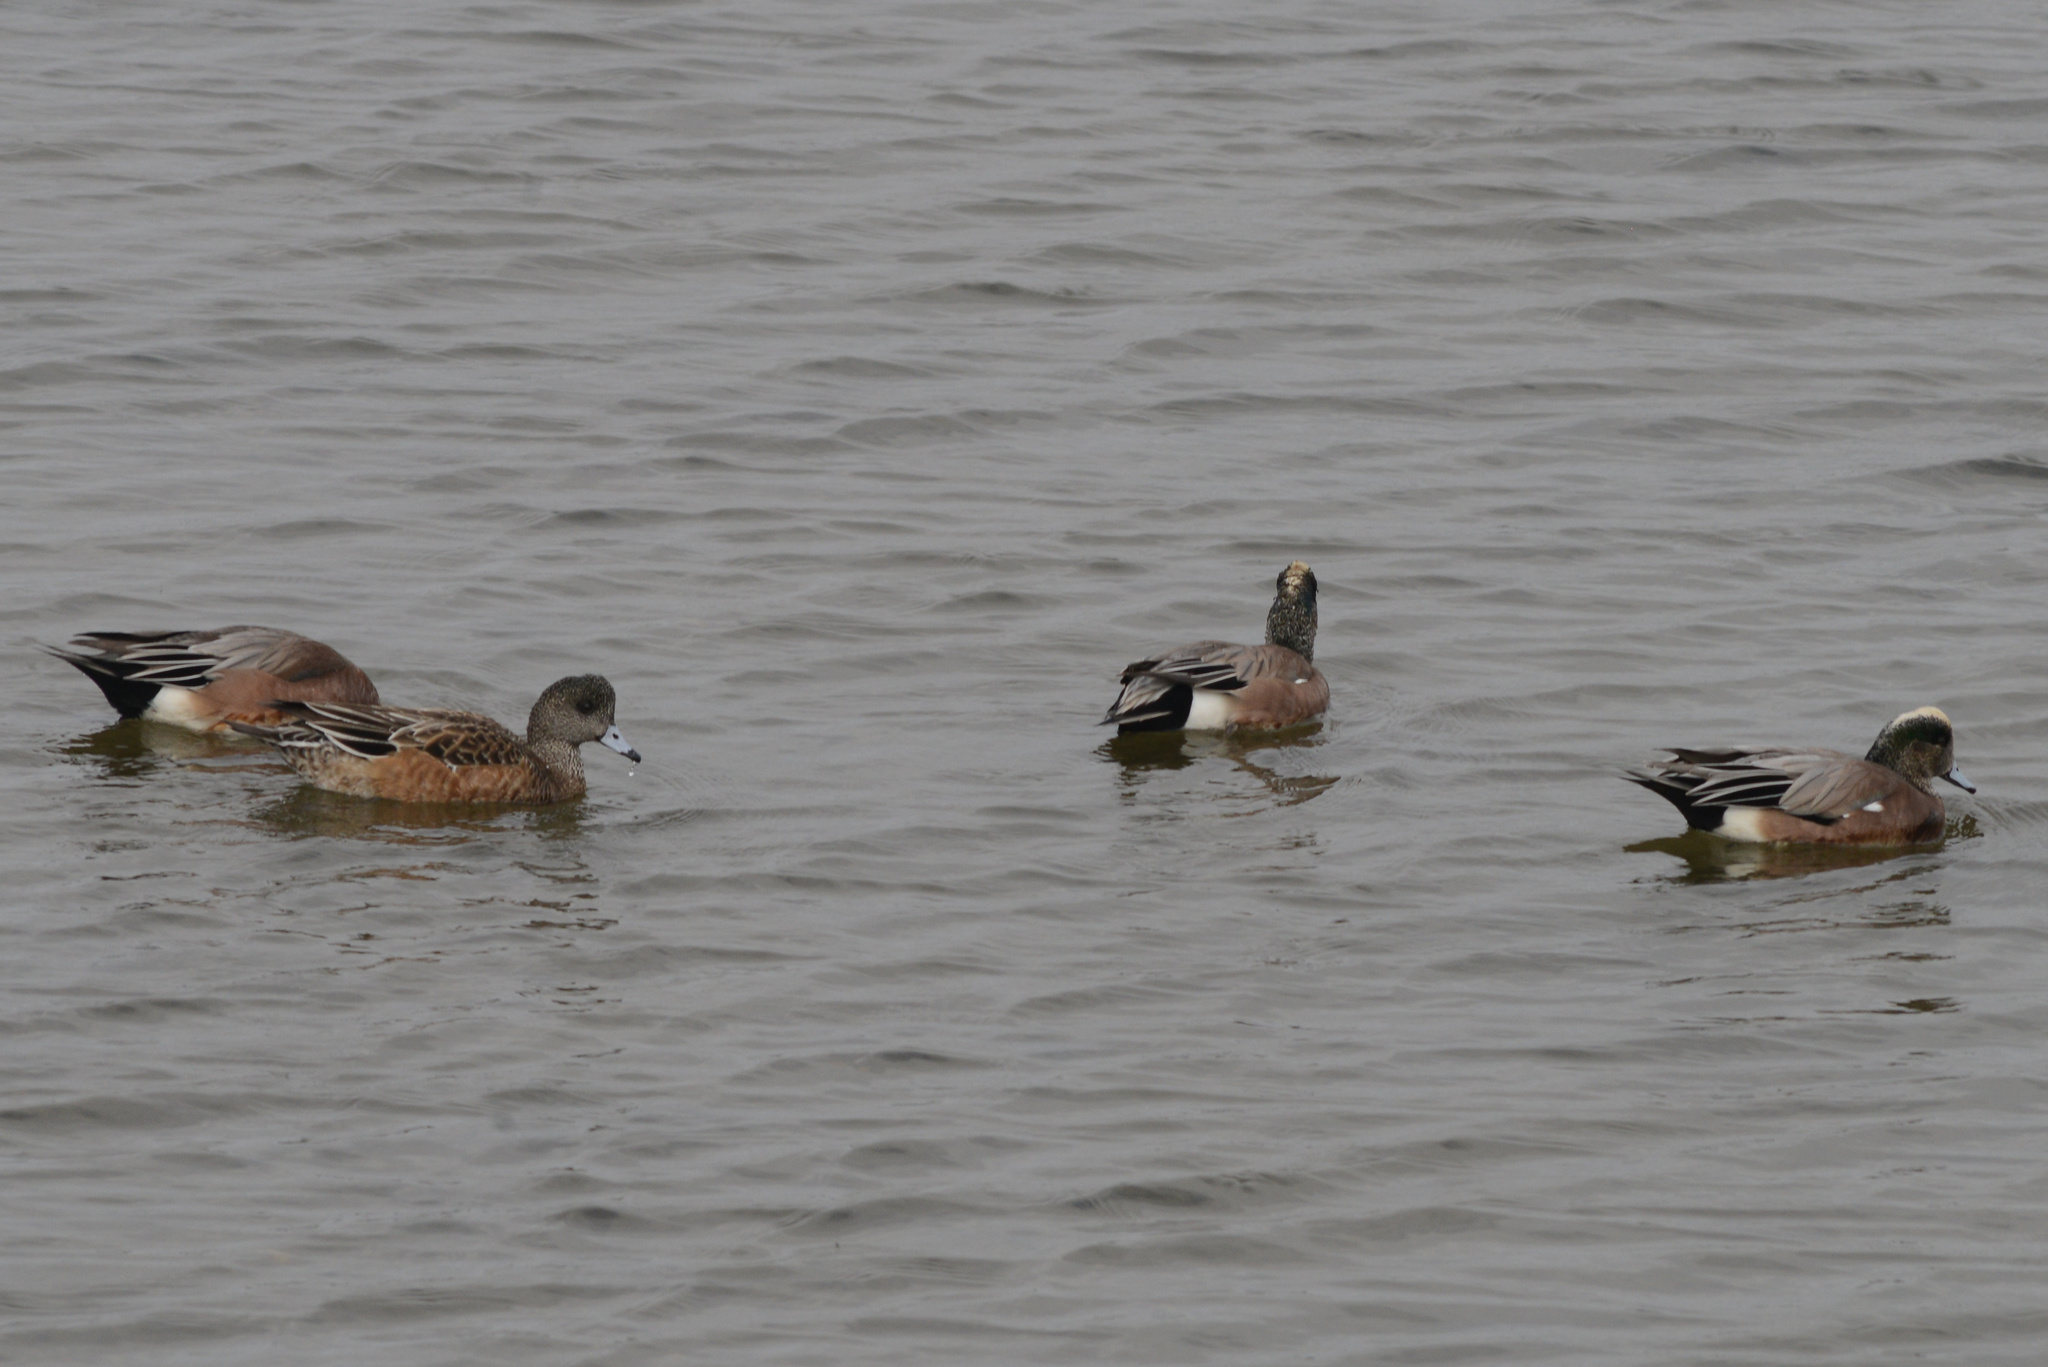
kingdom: Animalia
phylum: Chordata
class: Aves
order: Anseriformes
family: Anatidae
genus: Mareca
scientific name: Mareca americana
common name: American wigeon
